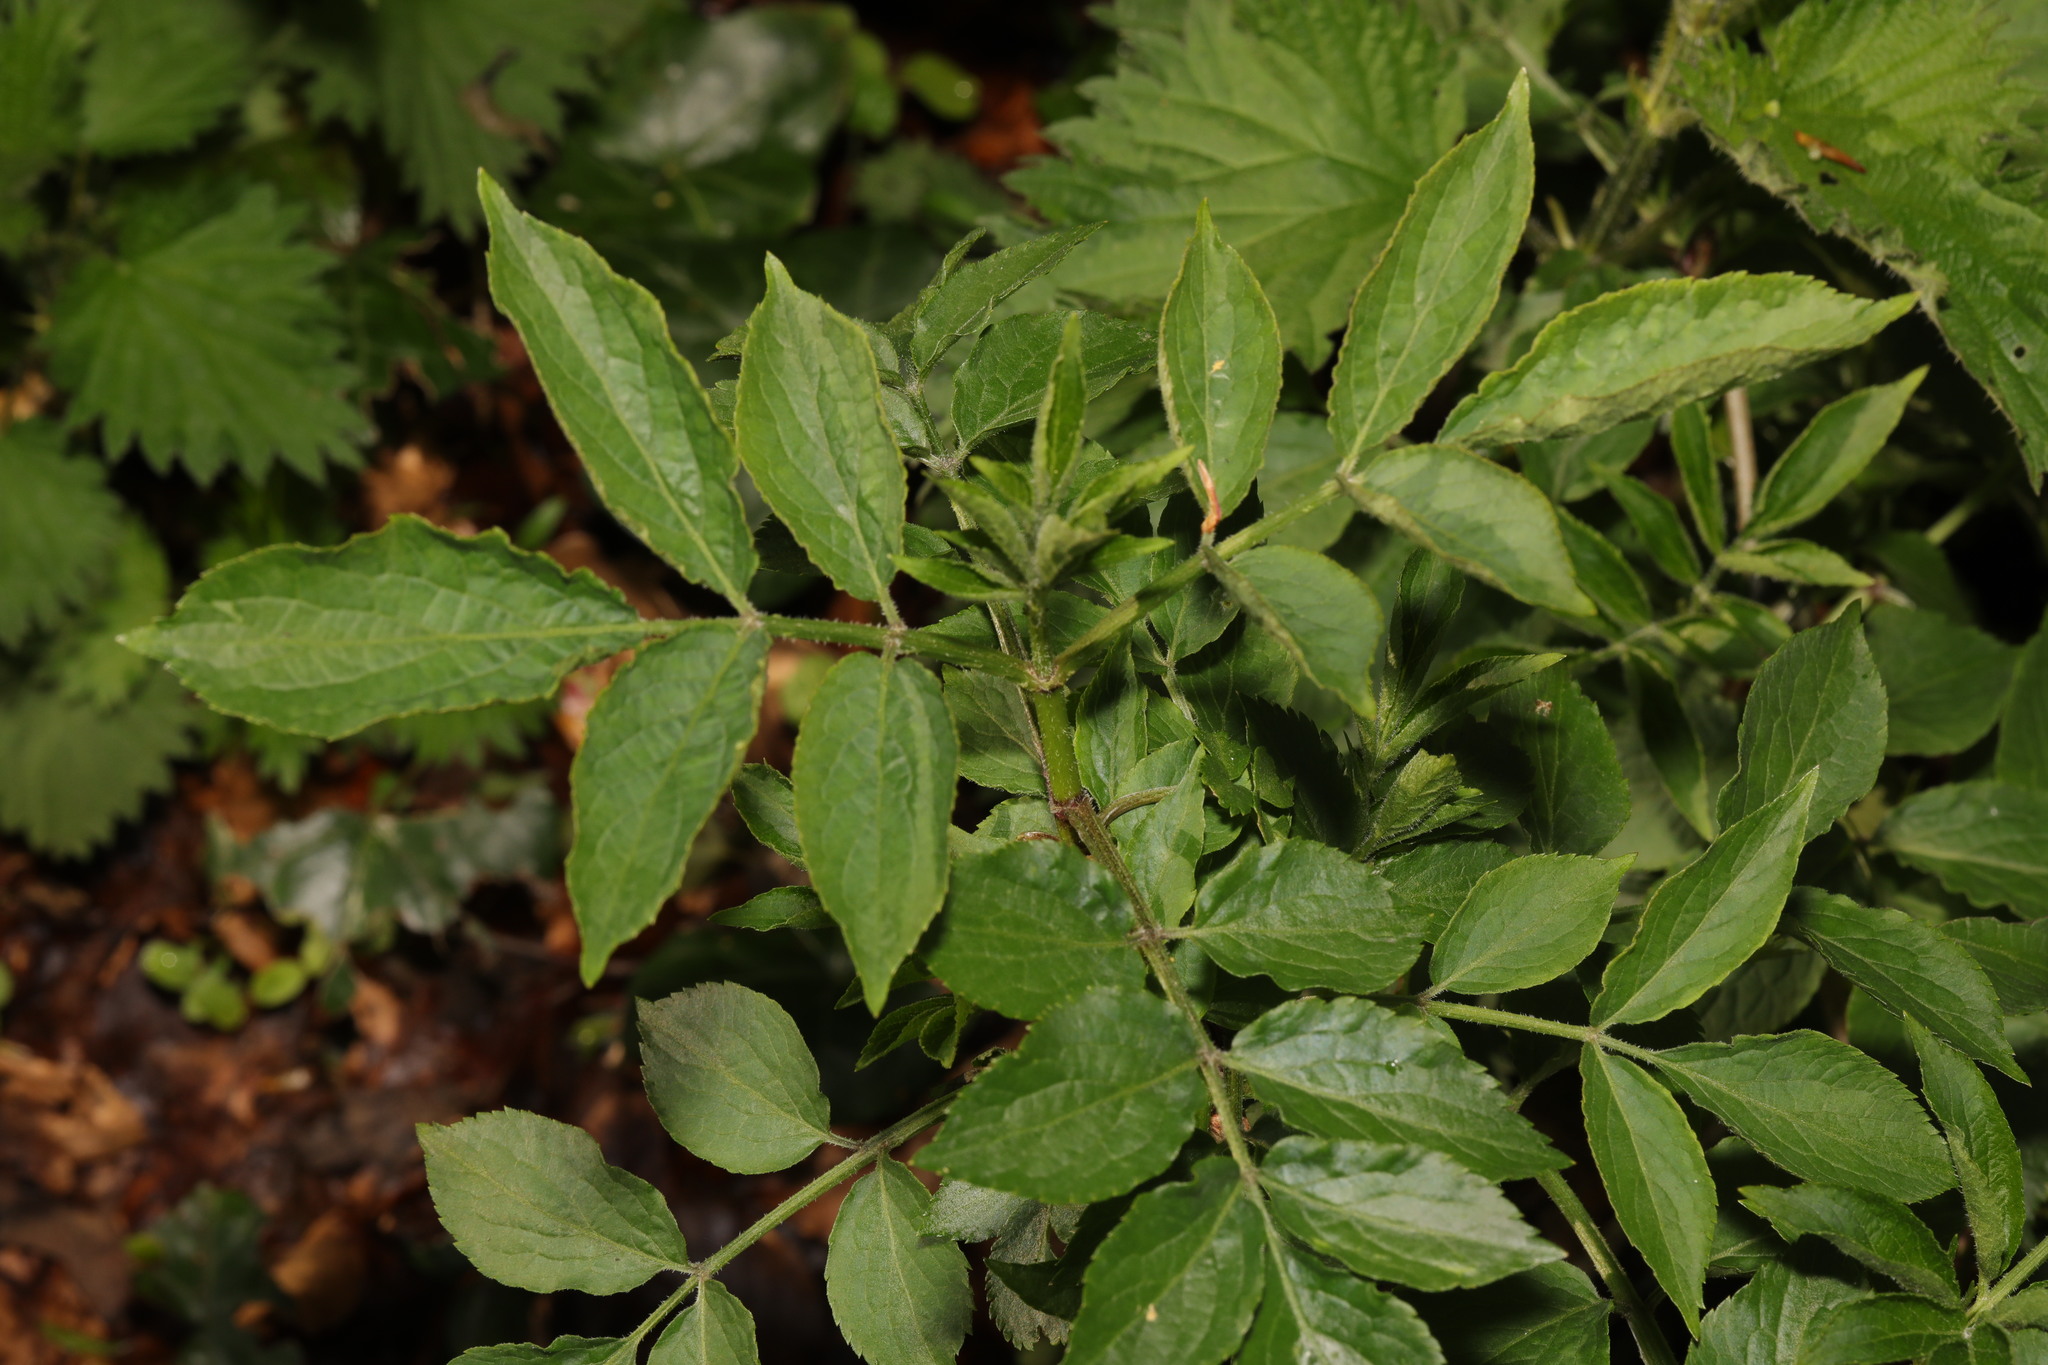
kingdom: Plantae
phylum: Tracheophyta
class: Magnoliopsida
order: Dipsacales
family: Viburnaceae
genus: Sambucus
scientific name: Sambucus nigra
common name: Elder
